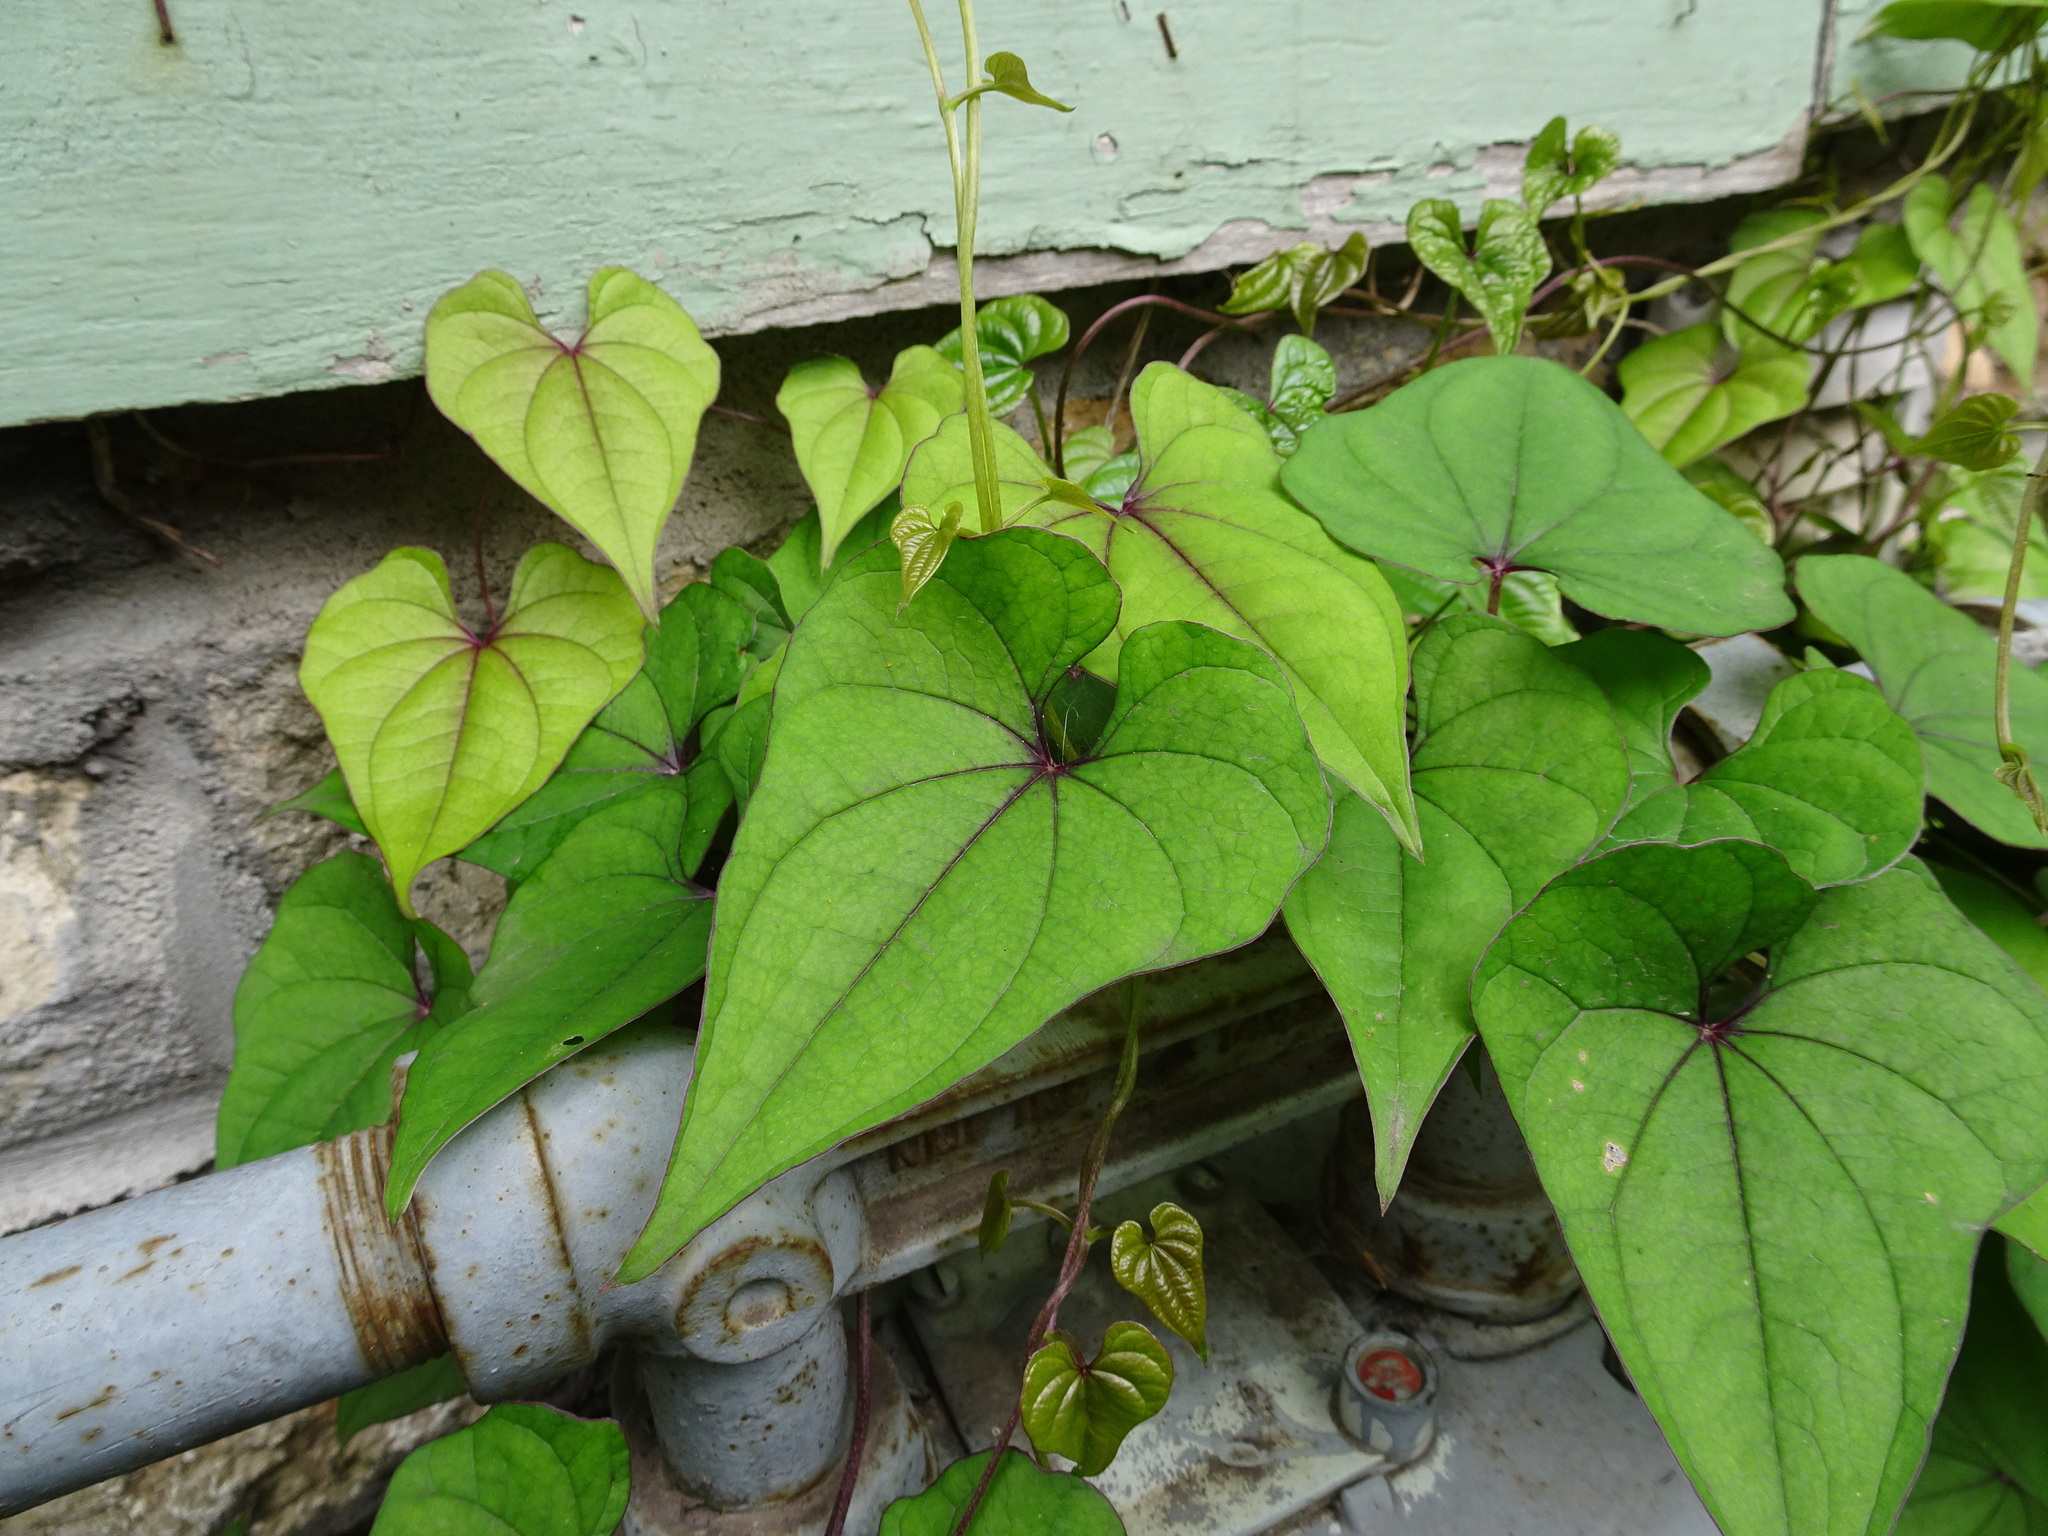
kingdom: Plantae
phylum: Tracheophyta
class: Liliopsida
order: Dioscoreales
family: Dioscoreaceae
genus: Dioscorea
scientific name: Dioscorea polystachya
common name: Chinese yam
